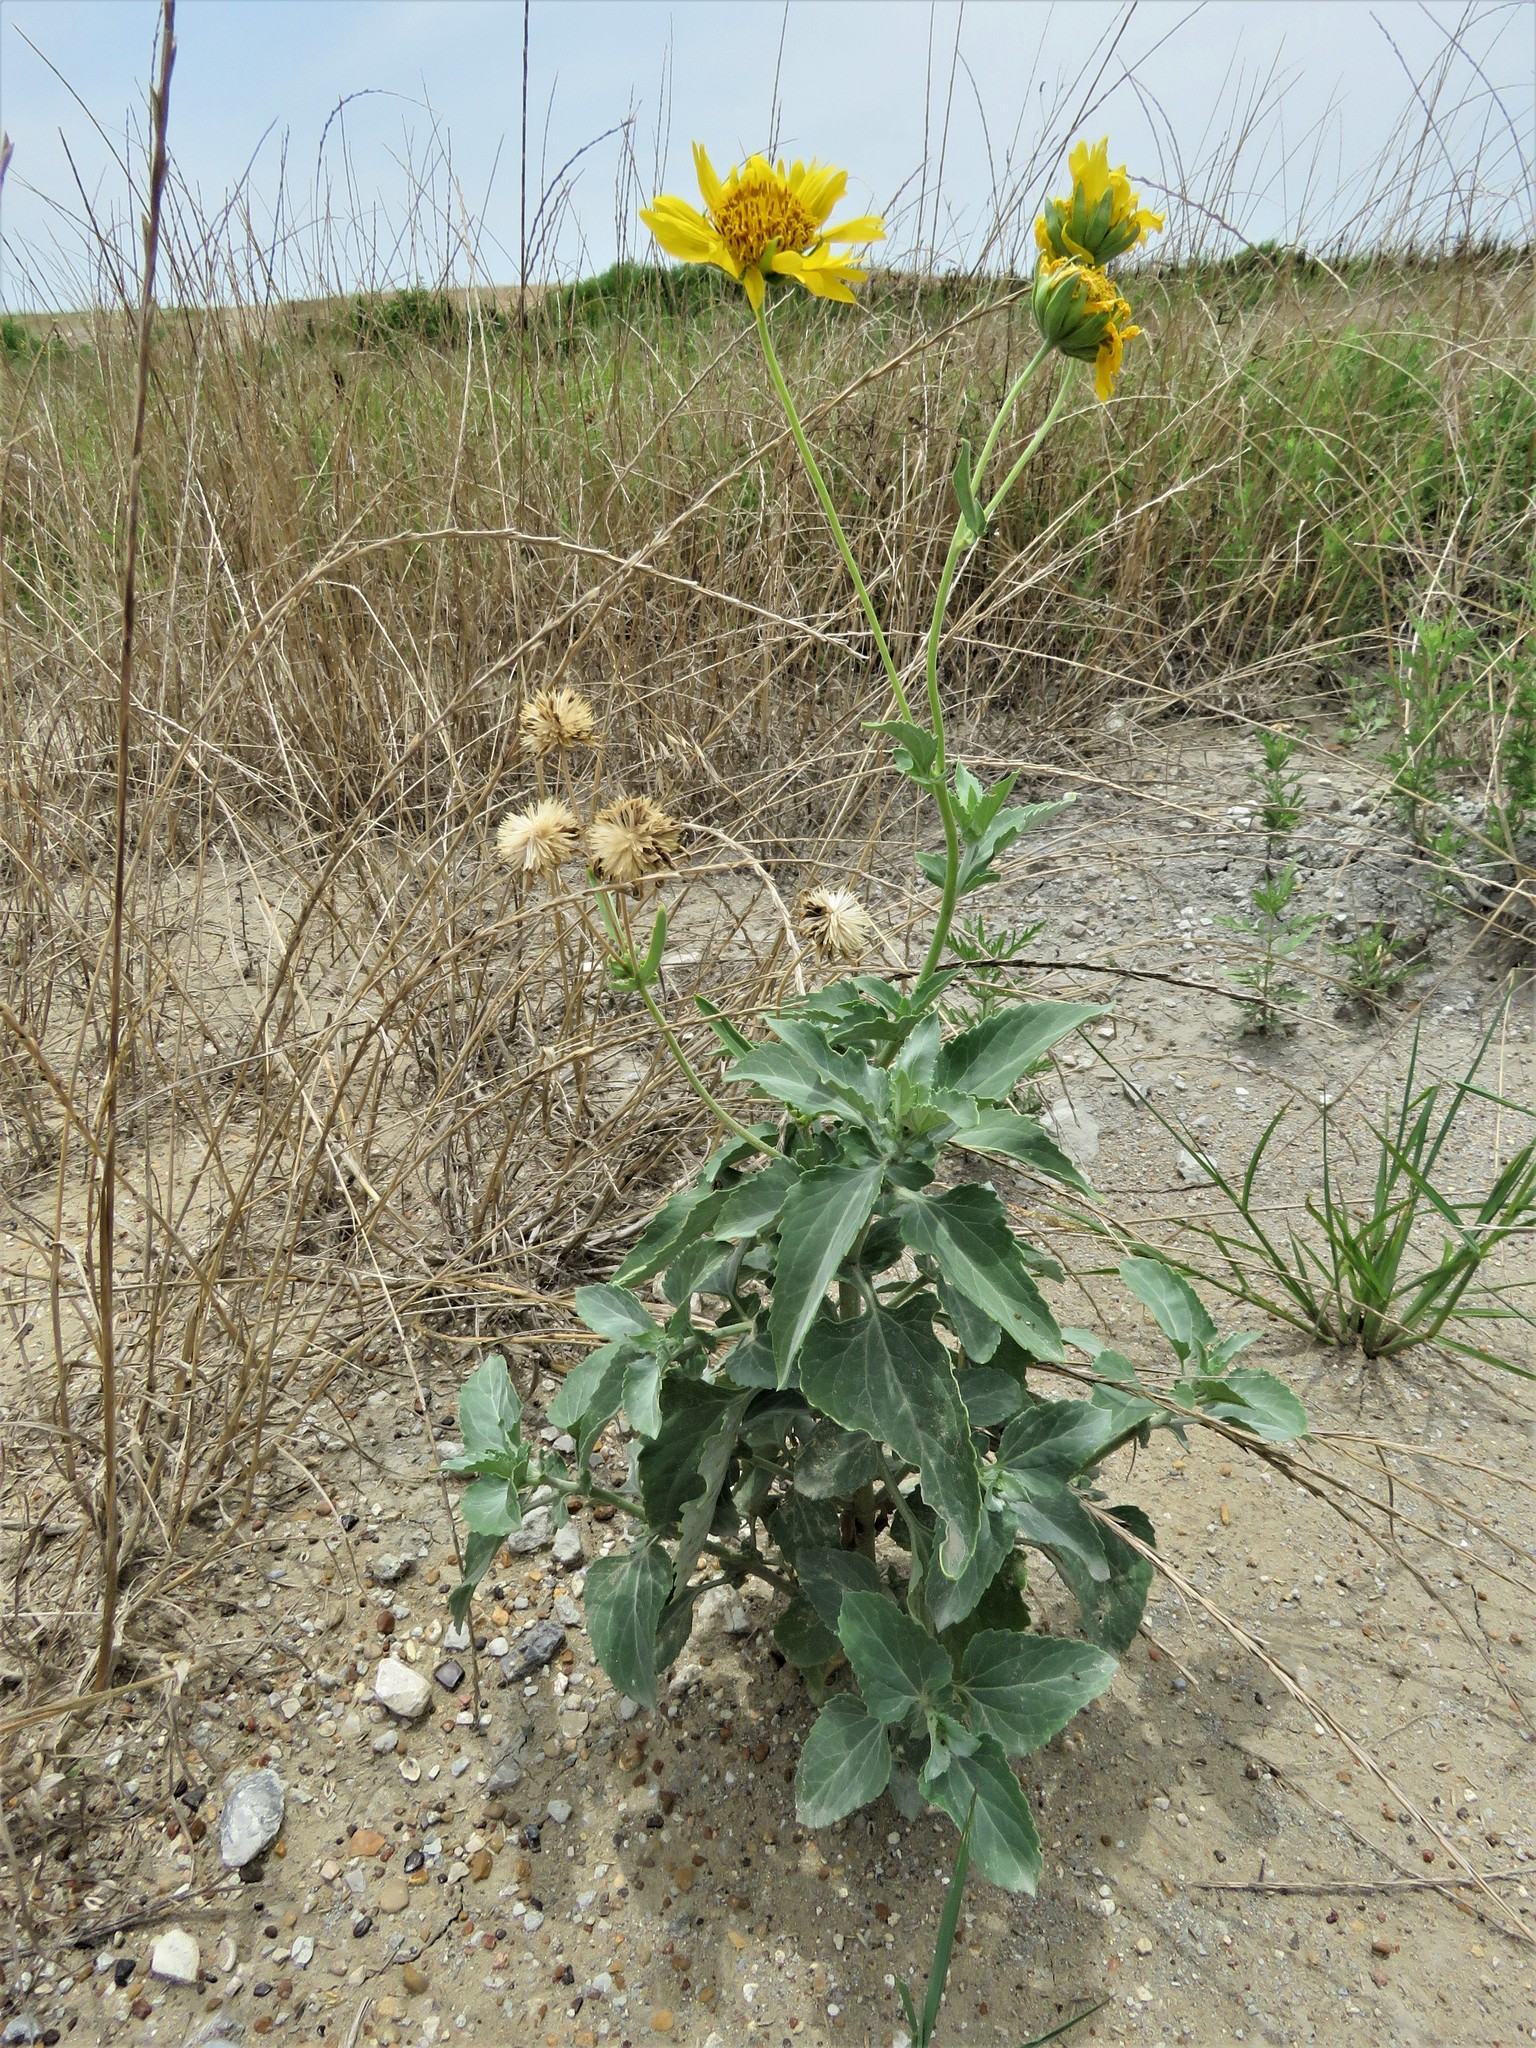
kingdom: Plantae
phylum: Tracheophyta
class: Magnoliopsida
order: Asterales
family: Asteraceae
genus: Verbesina
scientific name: Verbesina encelioides
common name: Golden crownbeard
